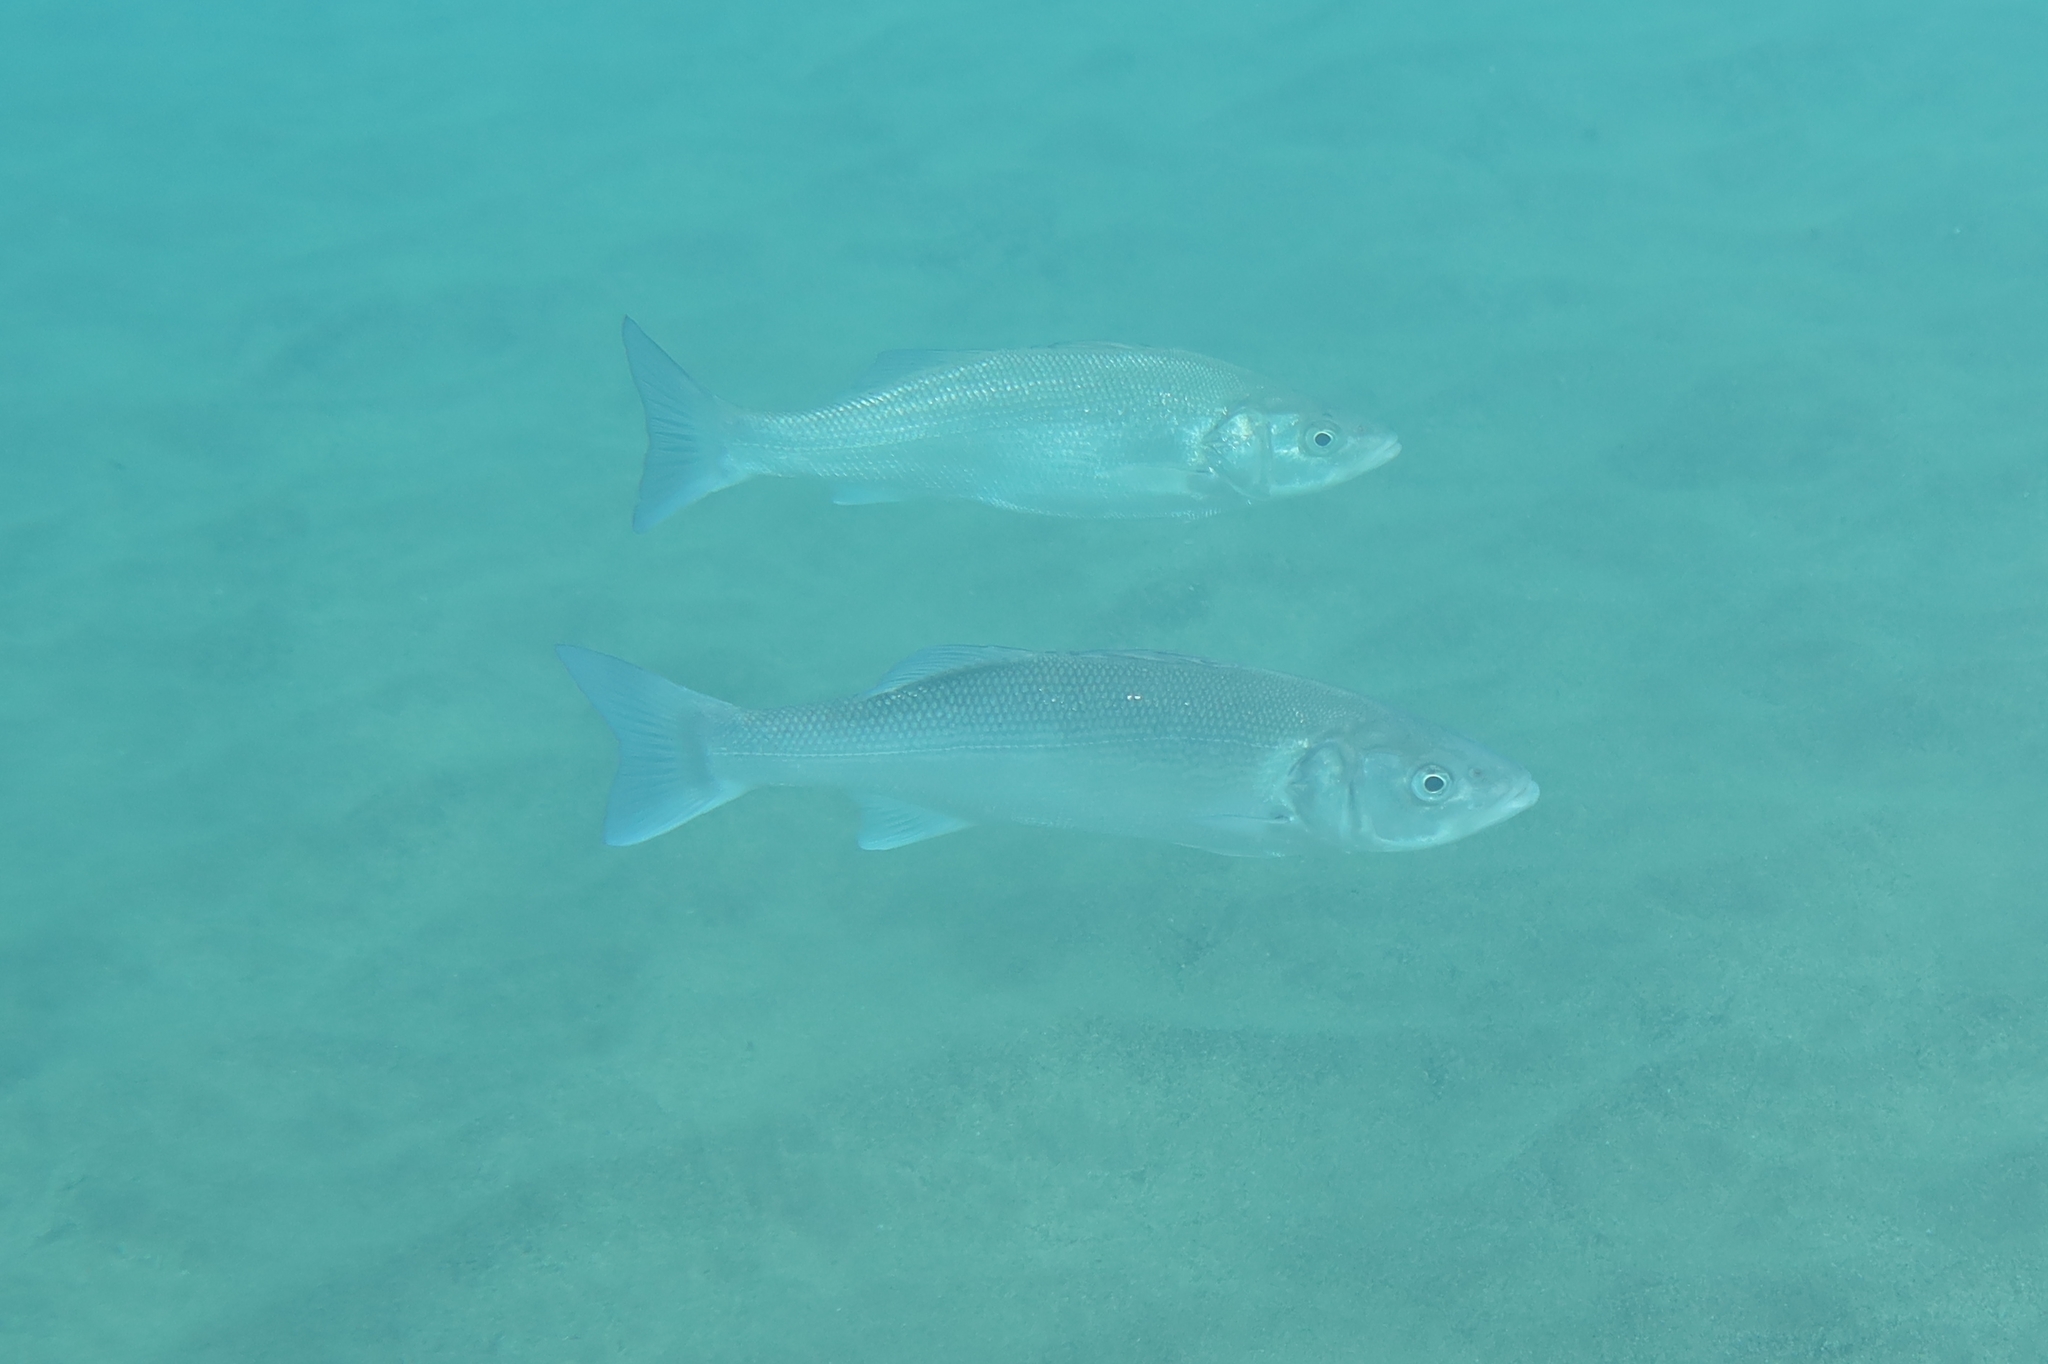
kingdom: Animalia
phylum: Chordata
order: Perciformes
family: Moronidae
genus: Dicentrarchus
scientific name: Dicentrarchus labrax
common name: European seabass
